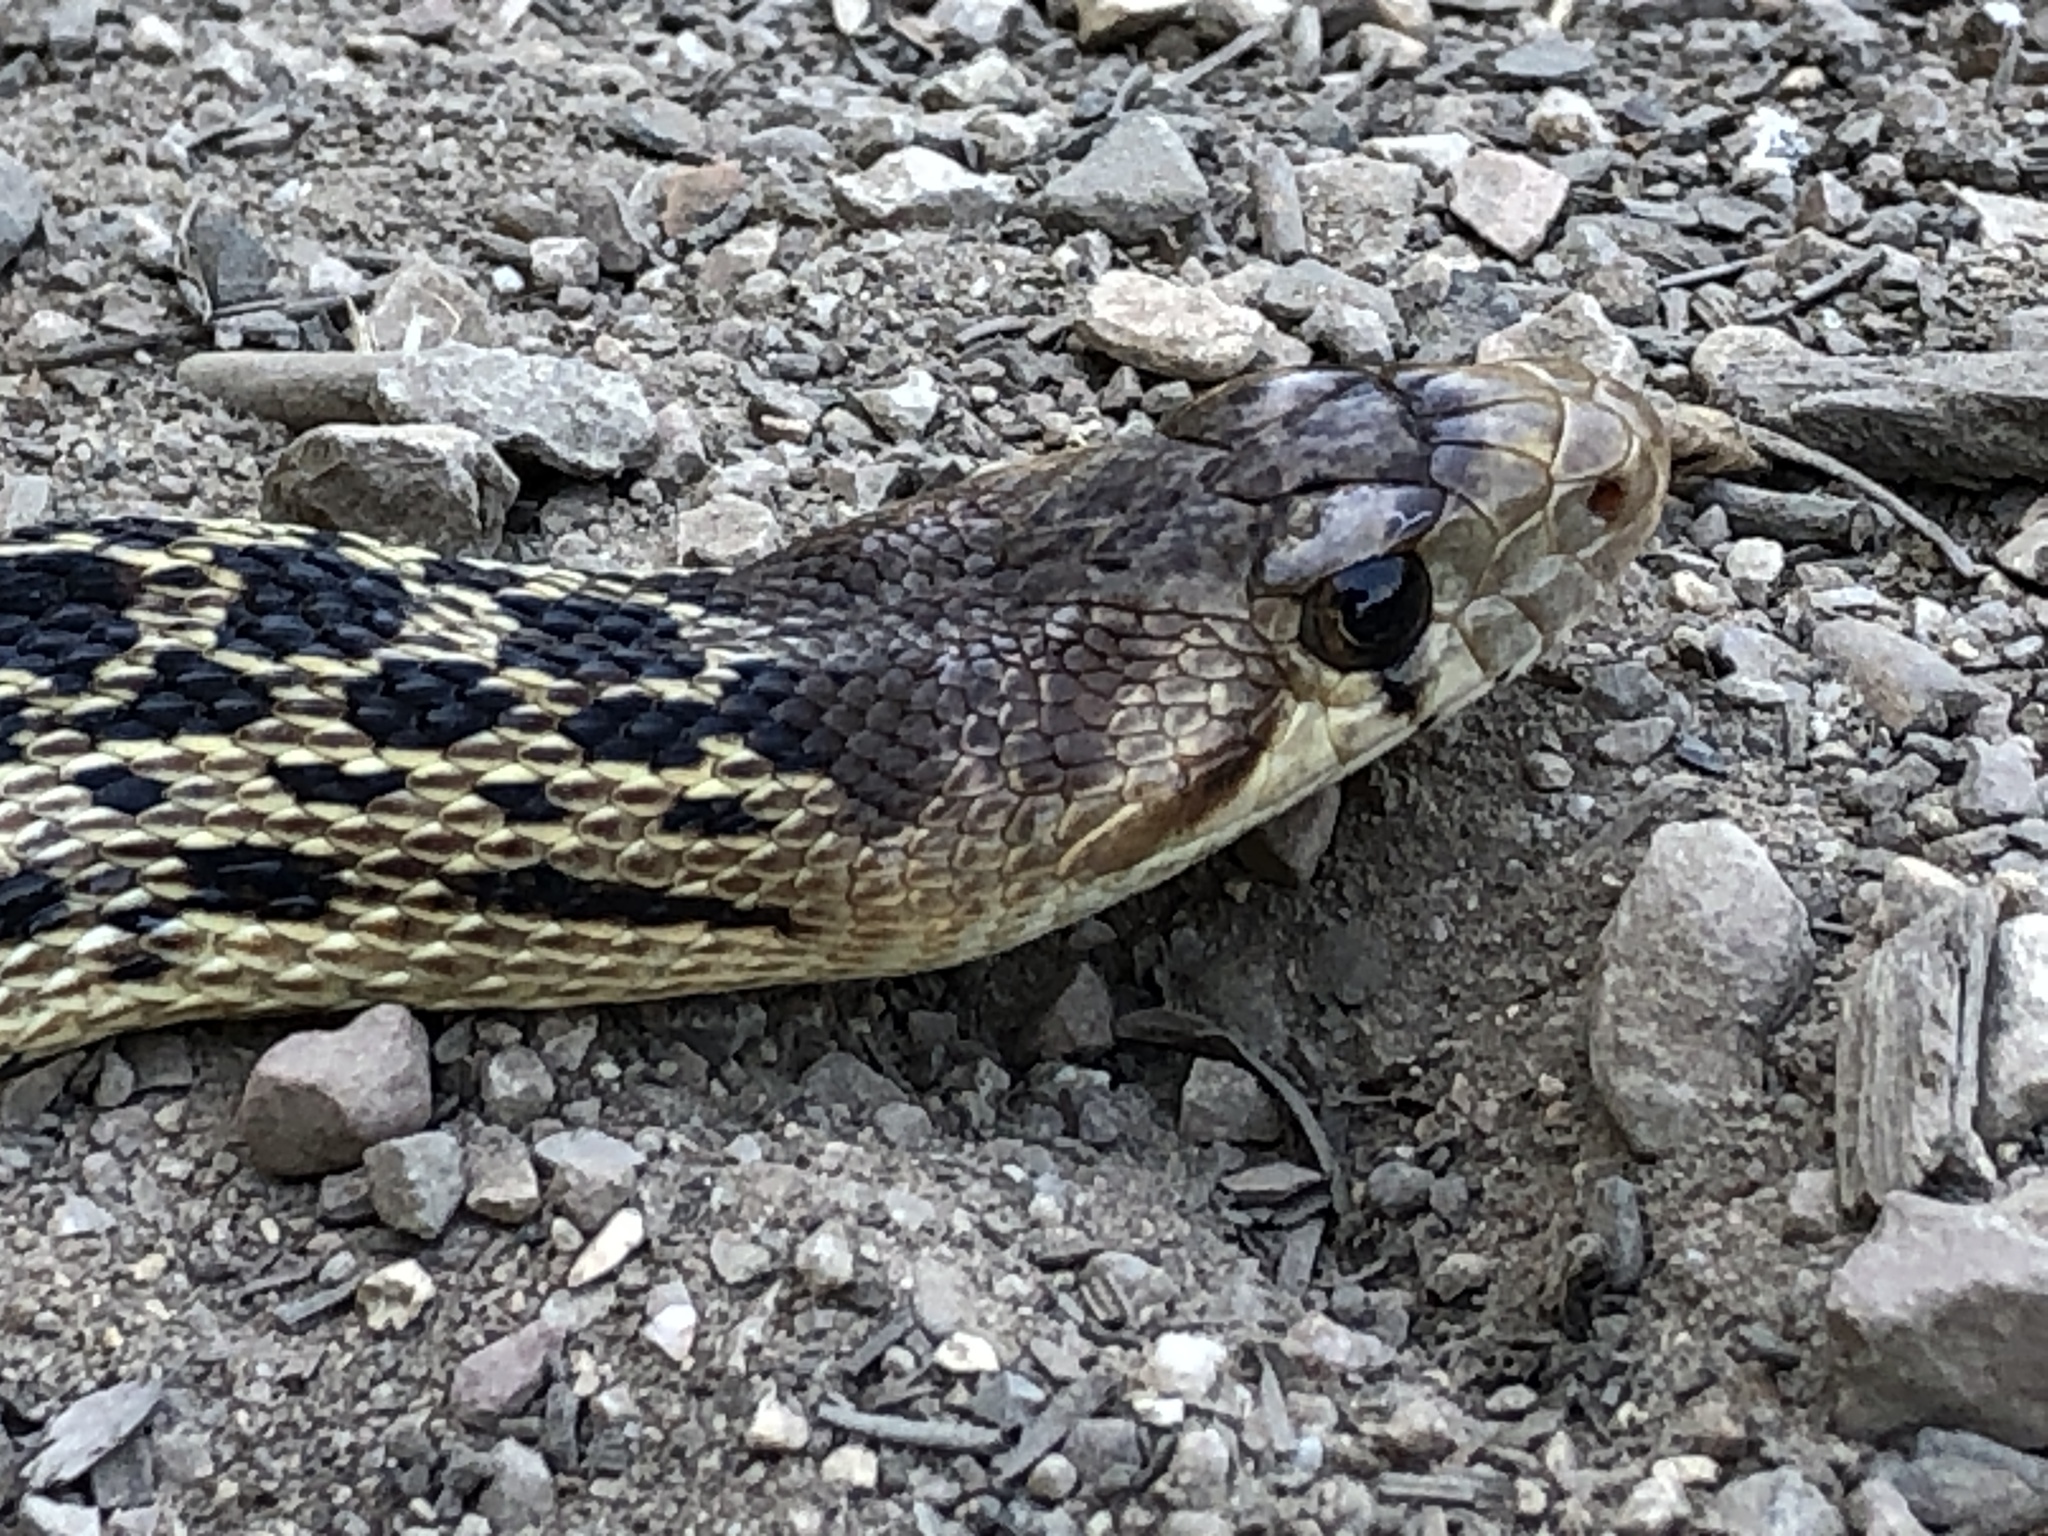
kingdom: Animalia
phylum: Chordata
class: Squamata
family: Colubridae
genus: Pituophis
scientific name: Pituophis catenifer
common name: Gopher snake
